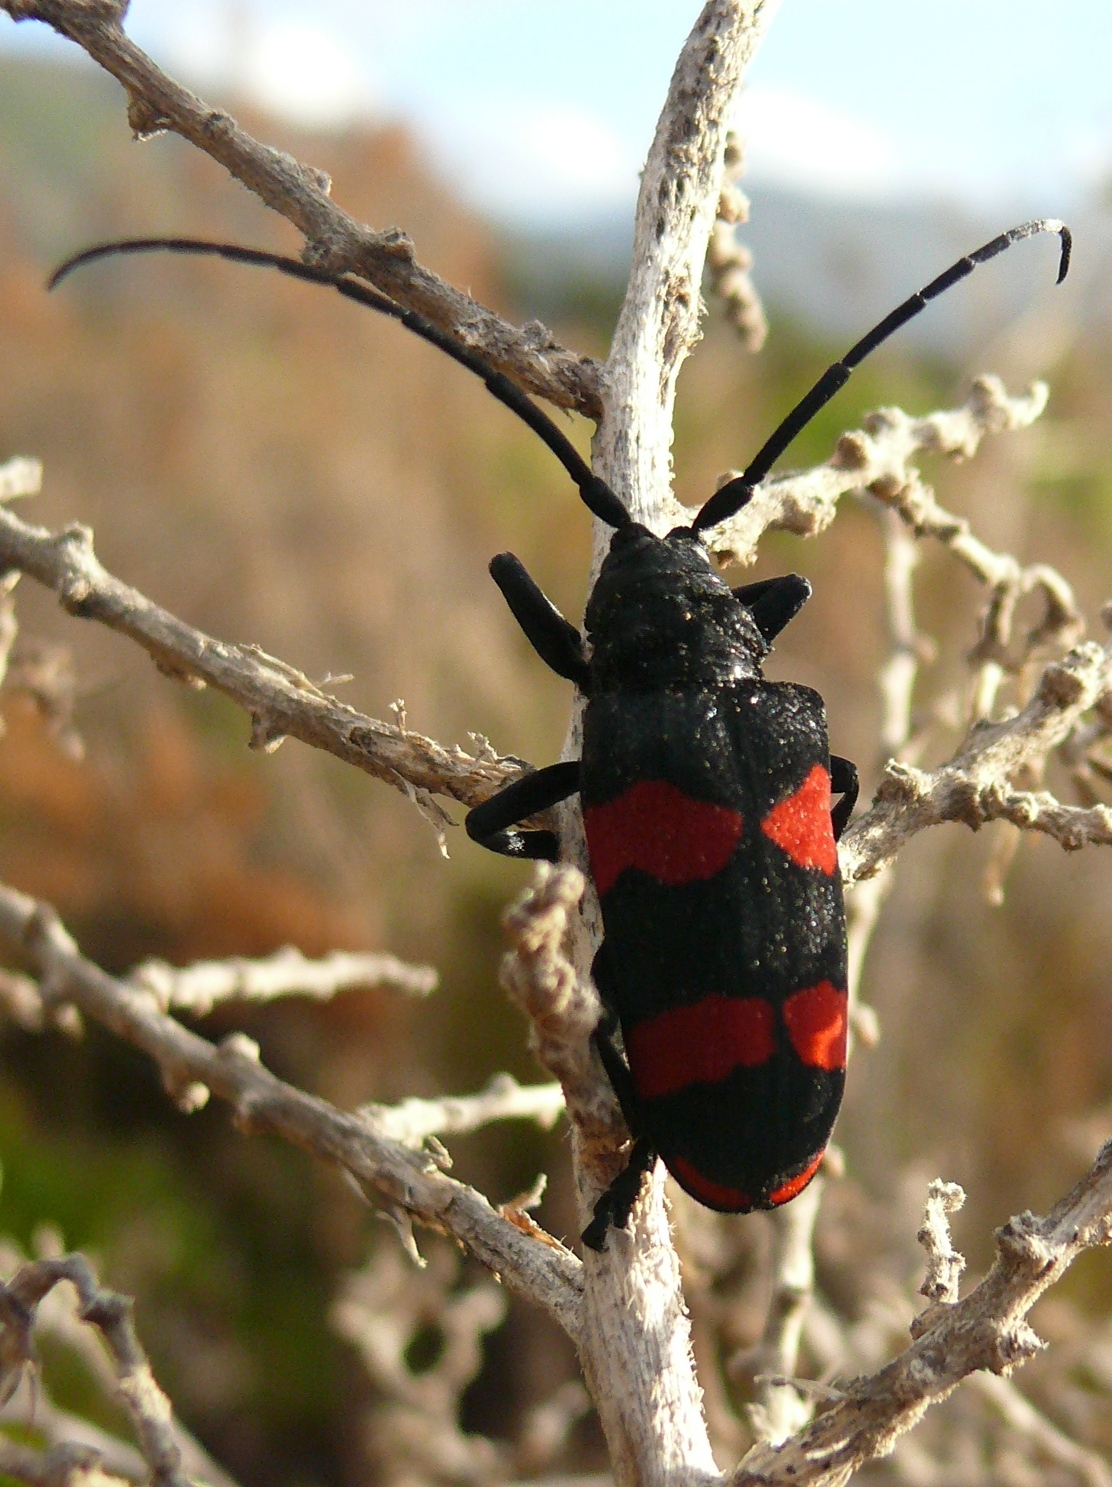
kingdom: Animalia
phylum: Arthropoda
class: Insecta
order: Coleoptera
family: Cerambycidae
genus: Ceroplesis
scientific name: Ceroplesis aethiops
